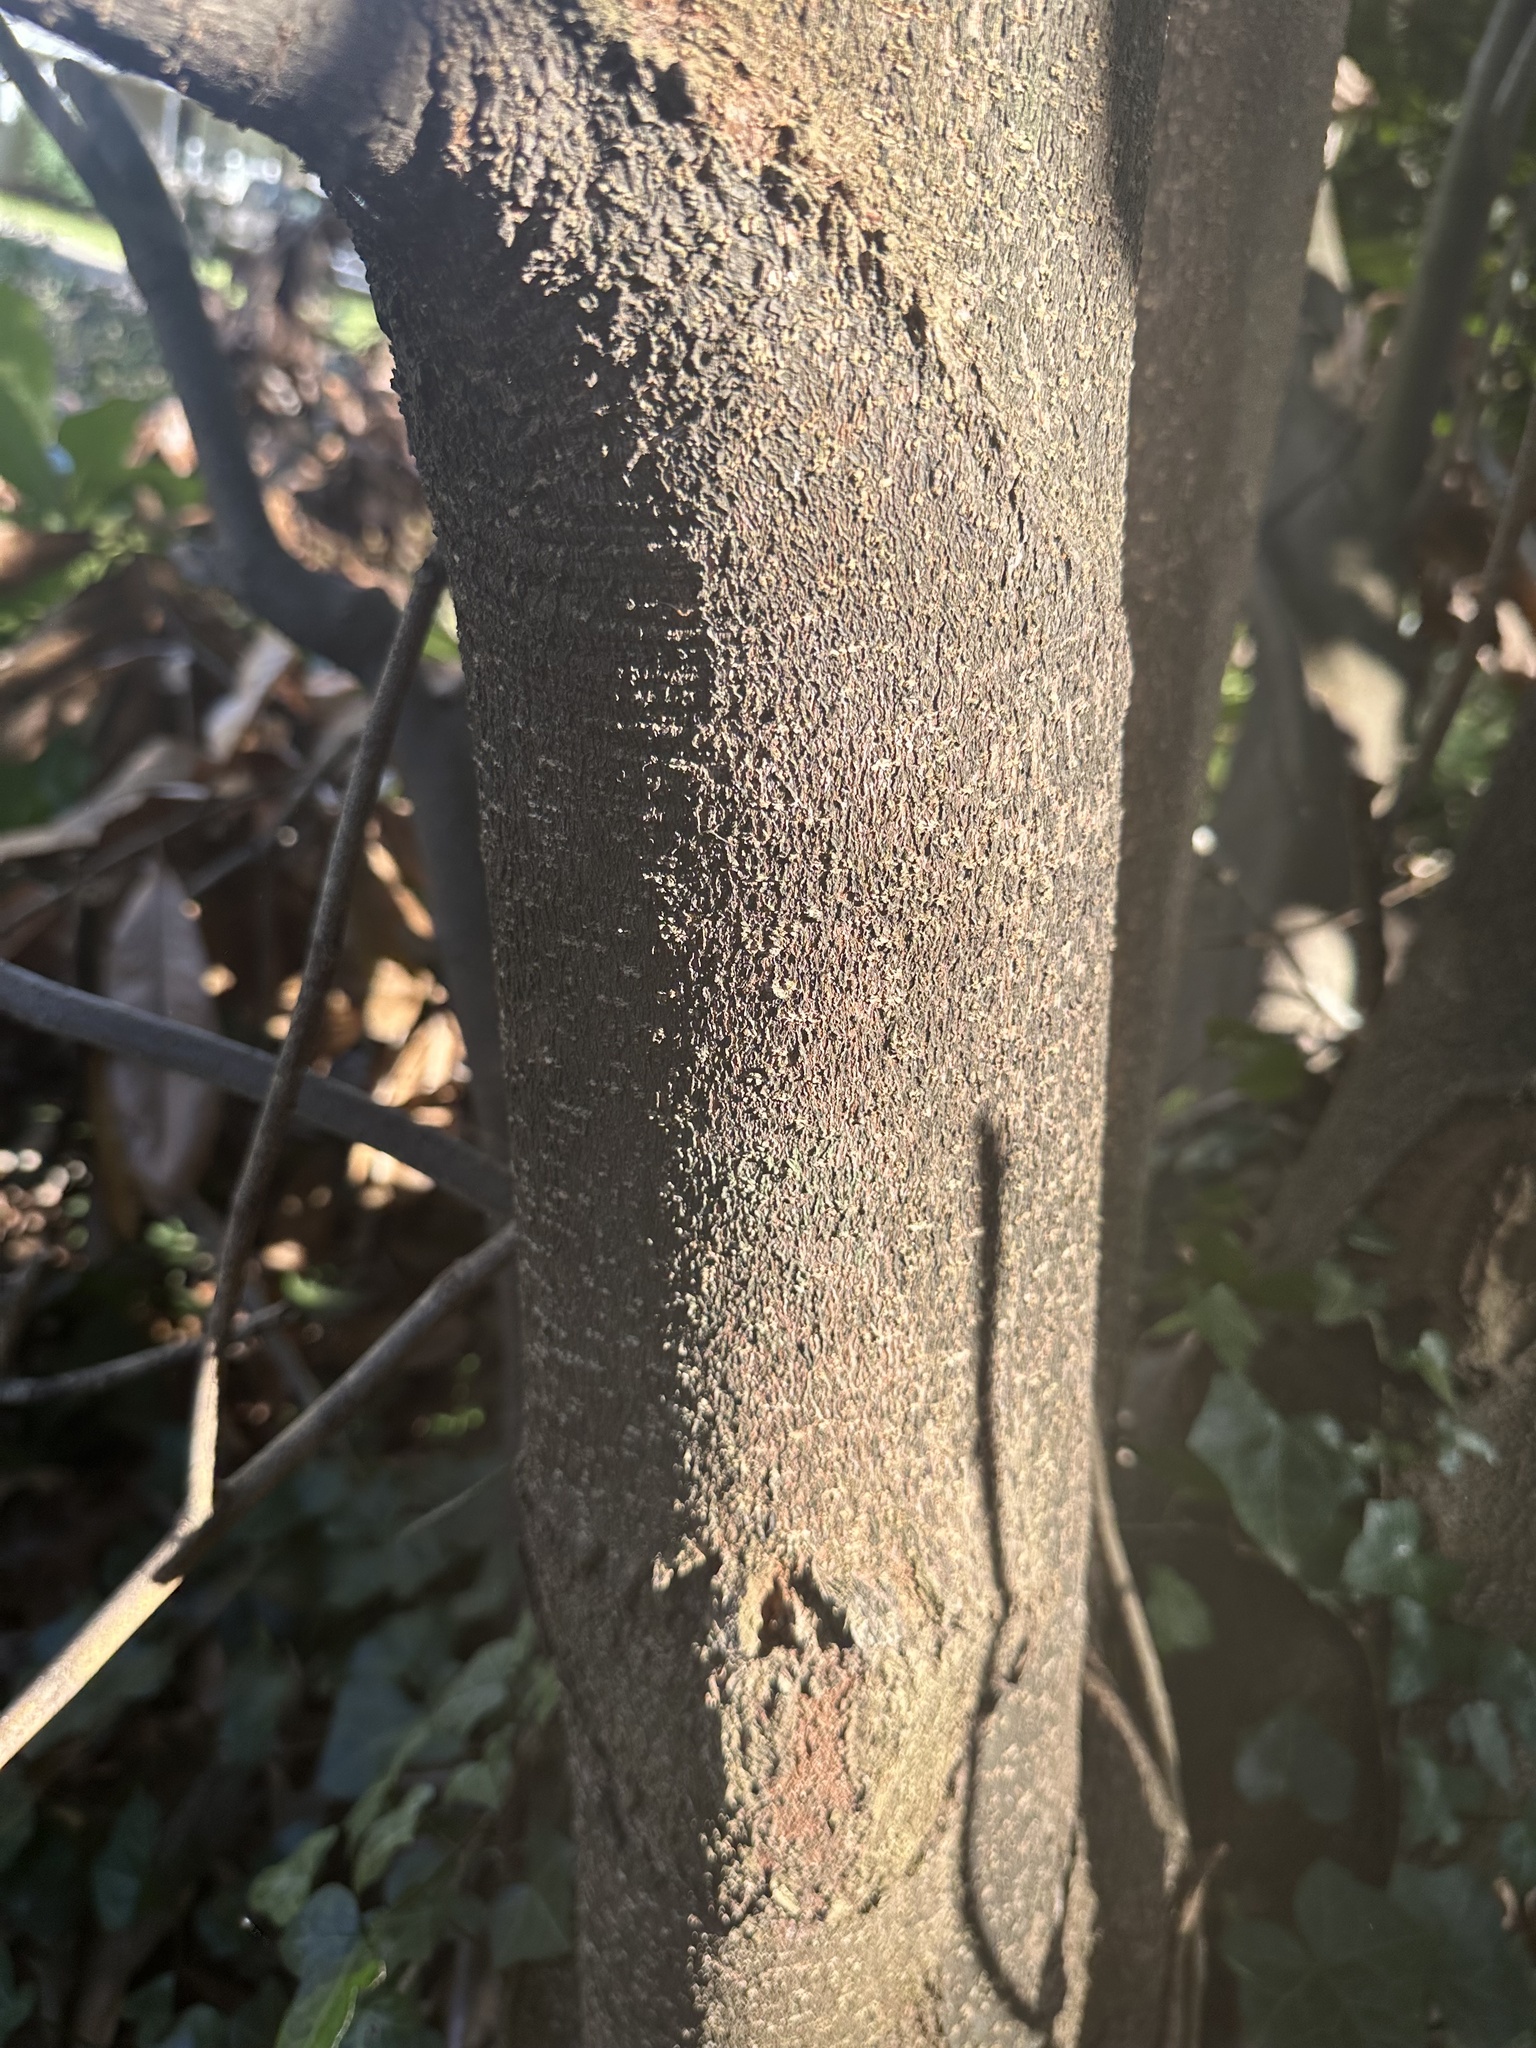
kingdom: Plantae
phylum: Tracheophyta
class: Magnoliopsida
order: Magnoliales
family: Magnoliaceae
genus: Magnolia
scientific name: Magnolia grandiflora
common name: Southern magnolia
